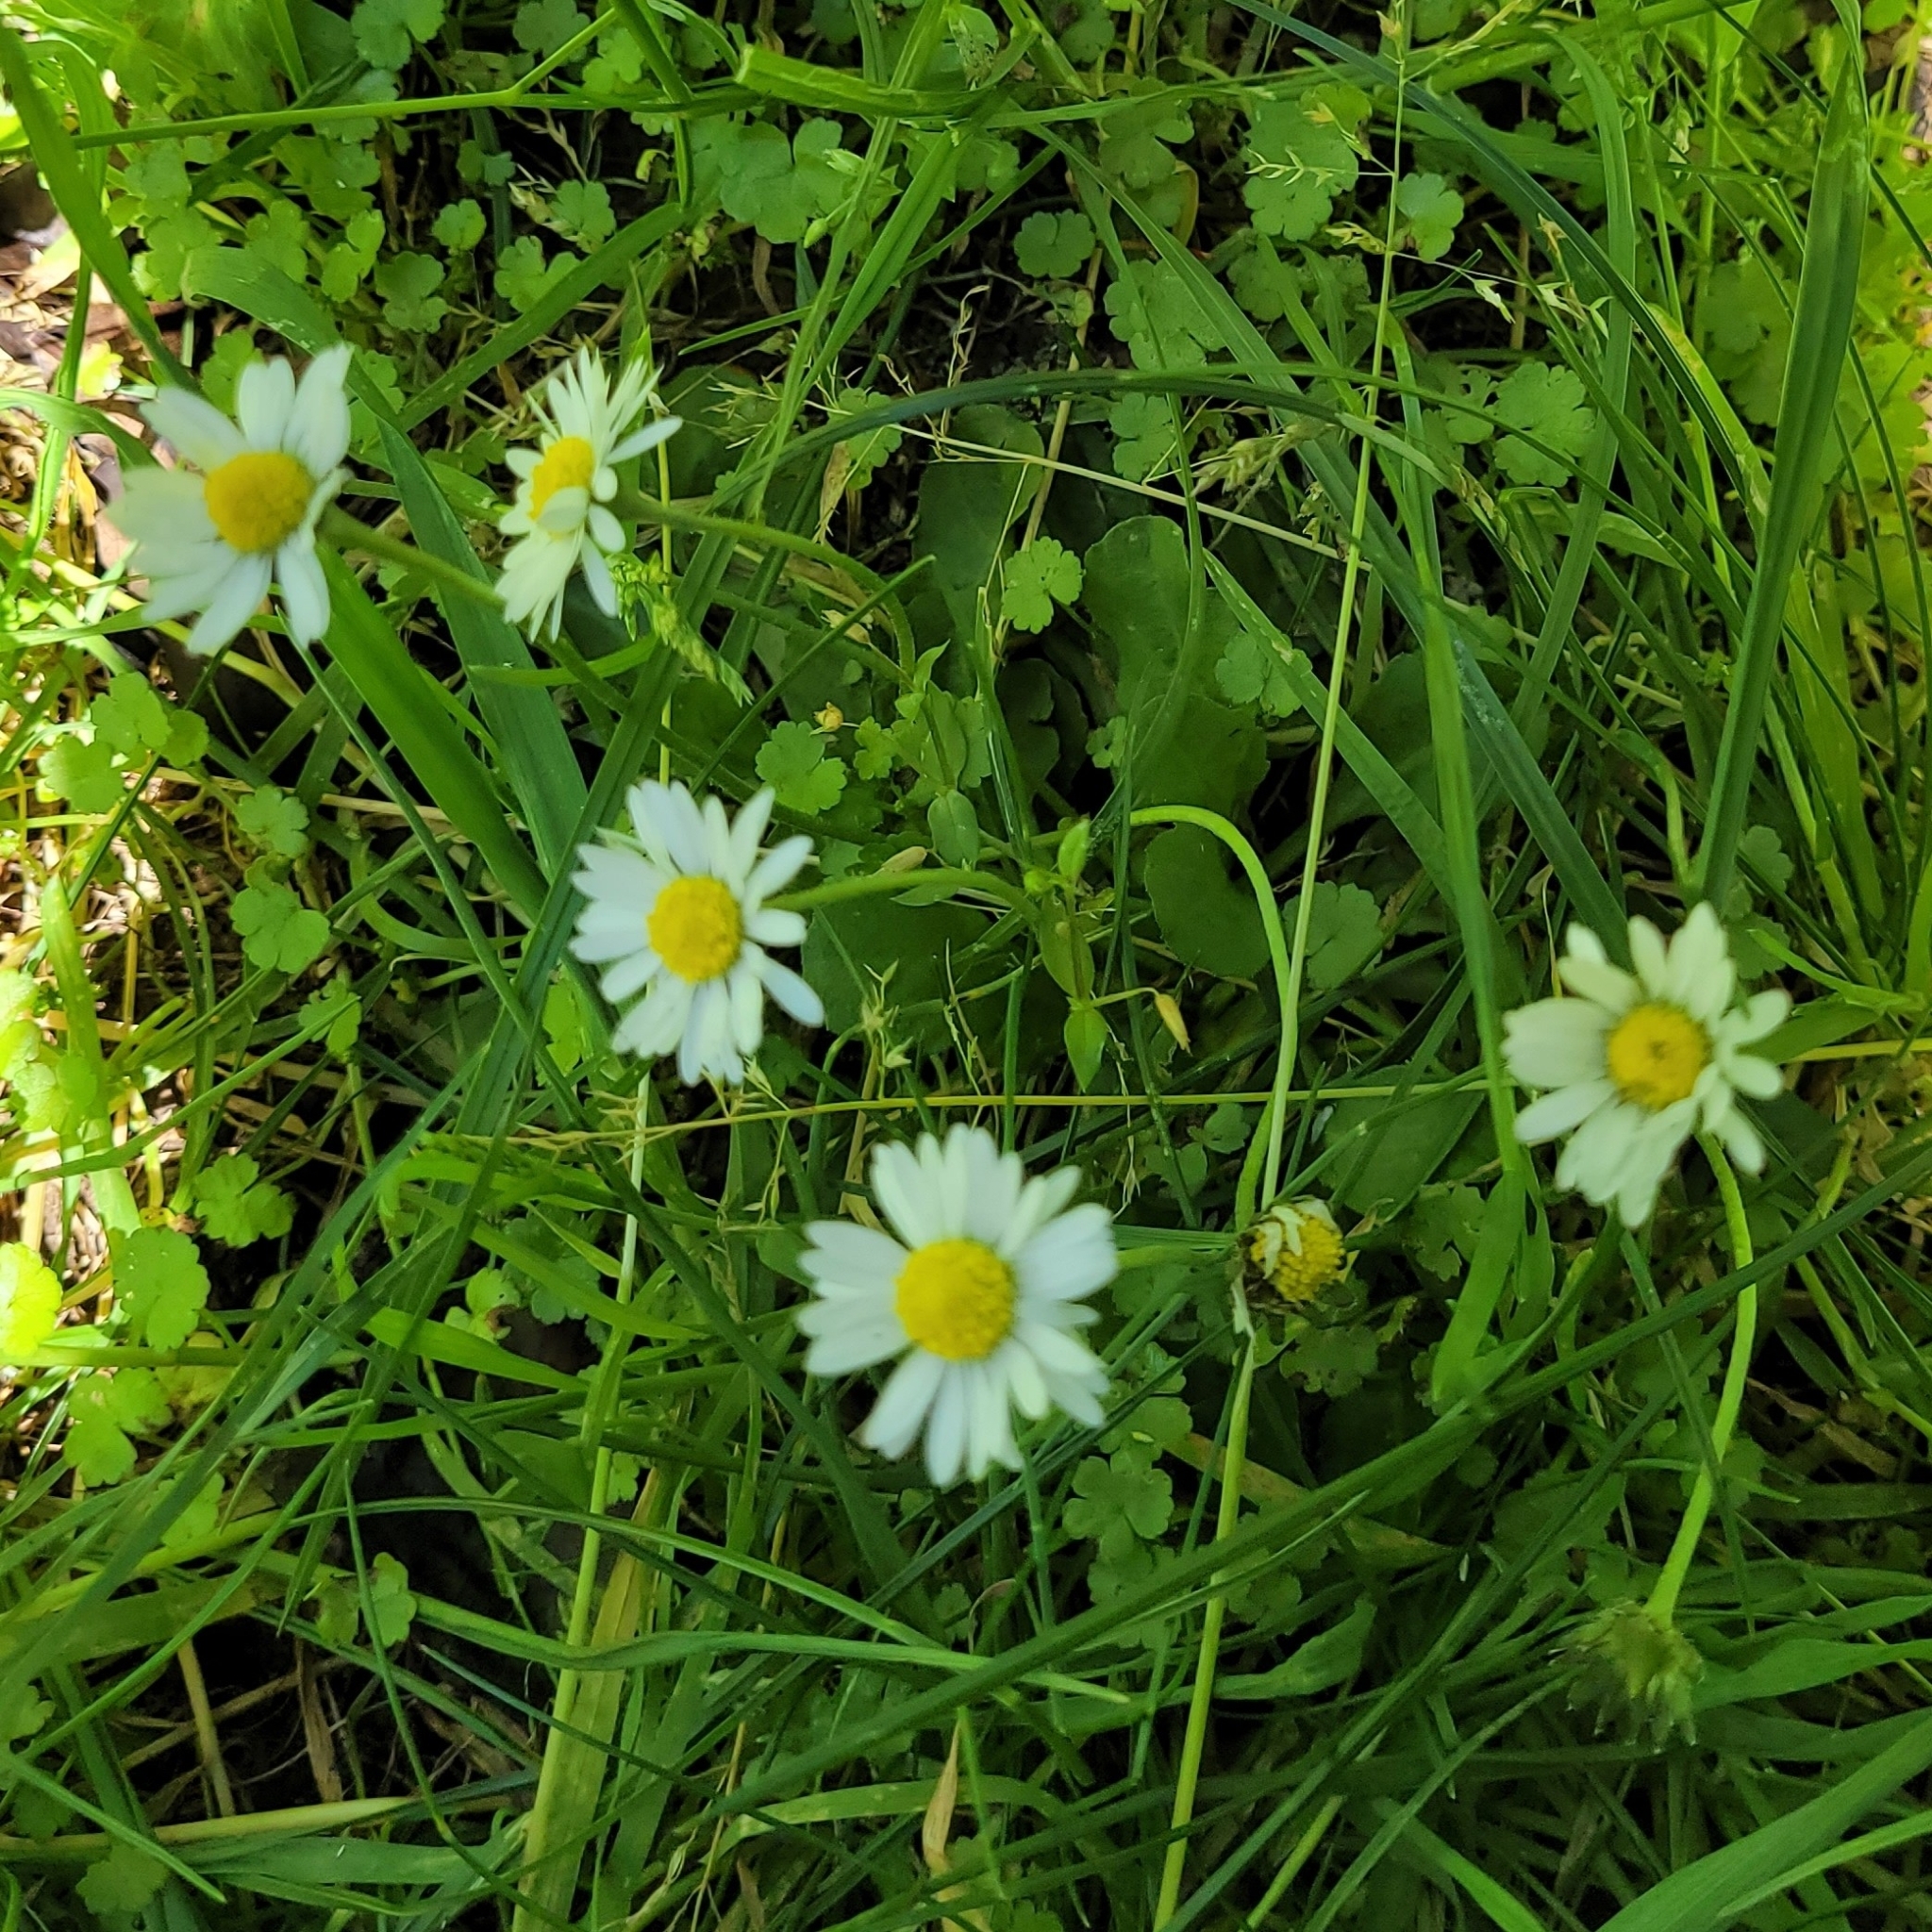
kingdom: Plantae
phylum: Tracheophyta
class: Magnoliopsida
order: Asterales
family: Asteraceae
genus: Bellis
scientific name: Bellis perennis
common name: Lawndaisy
